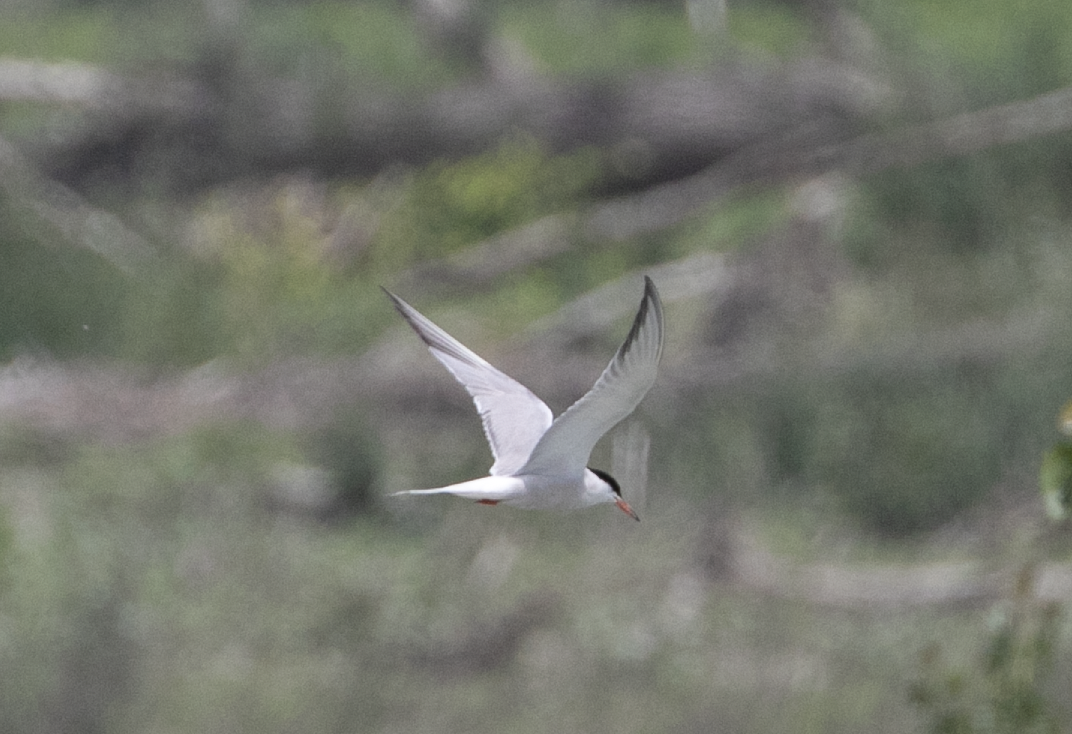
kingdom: Animalia
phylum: Chordata
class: Aves
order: Charadriiformes
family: Laridae
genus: Sterna
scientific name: Sterna hirundo
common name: Common tern
